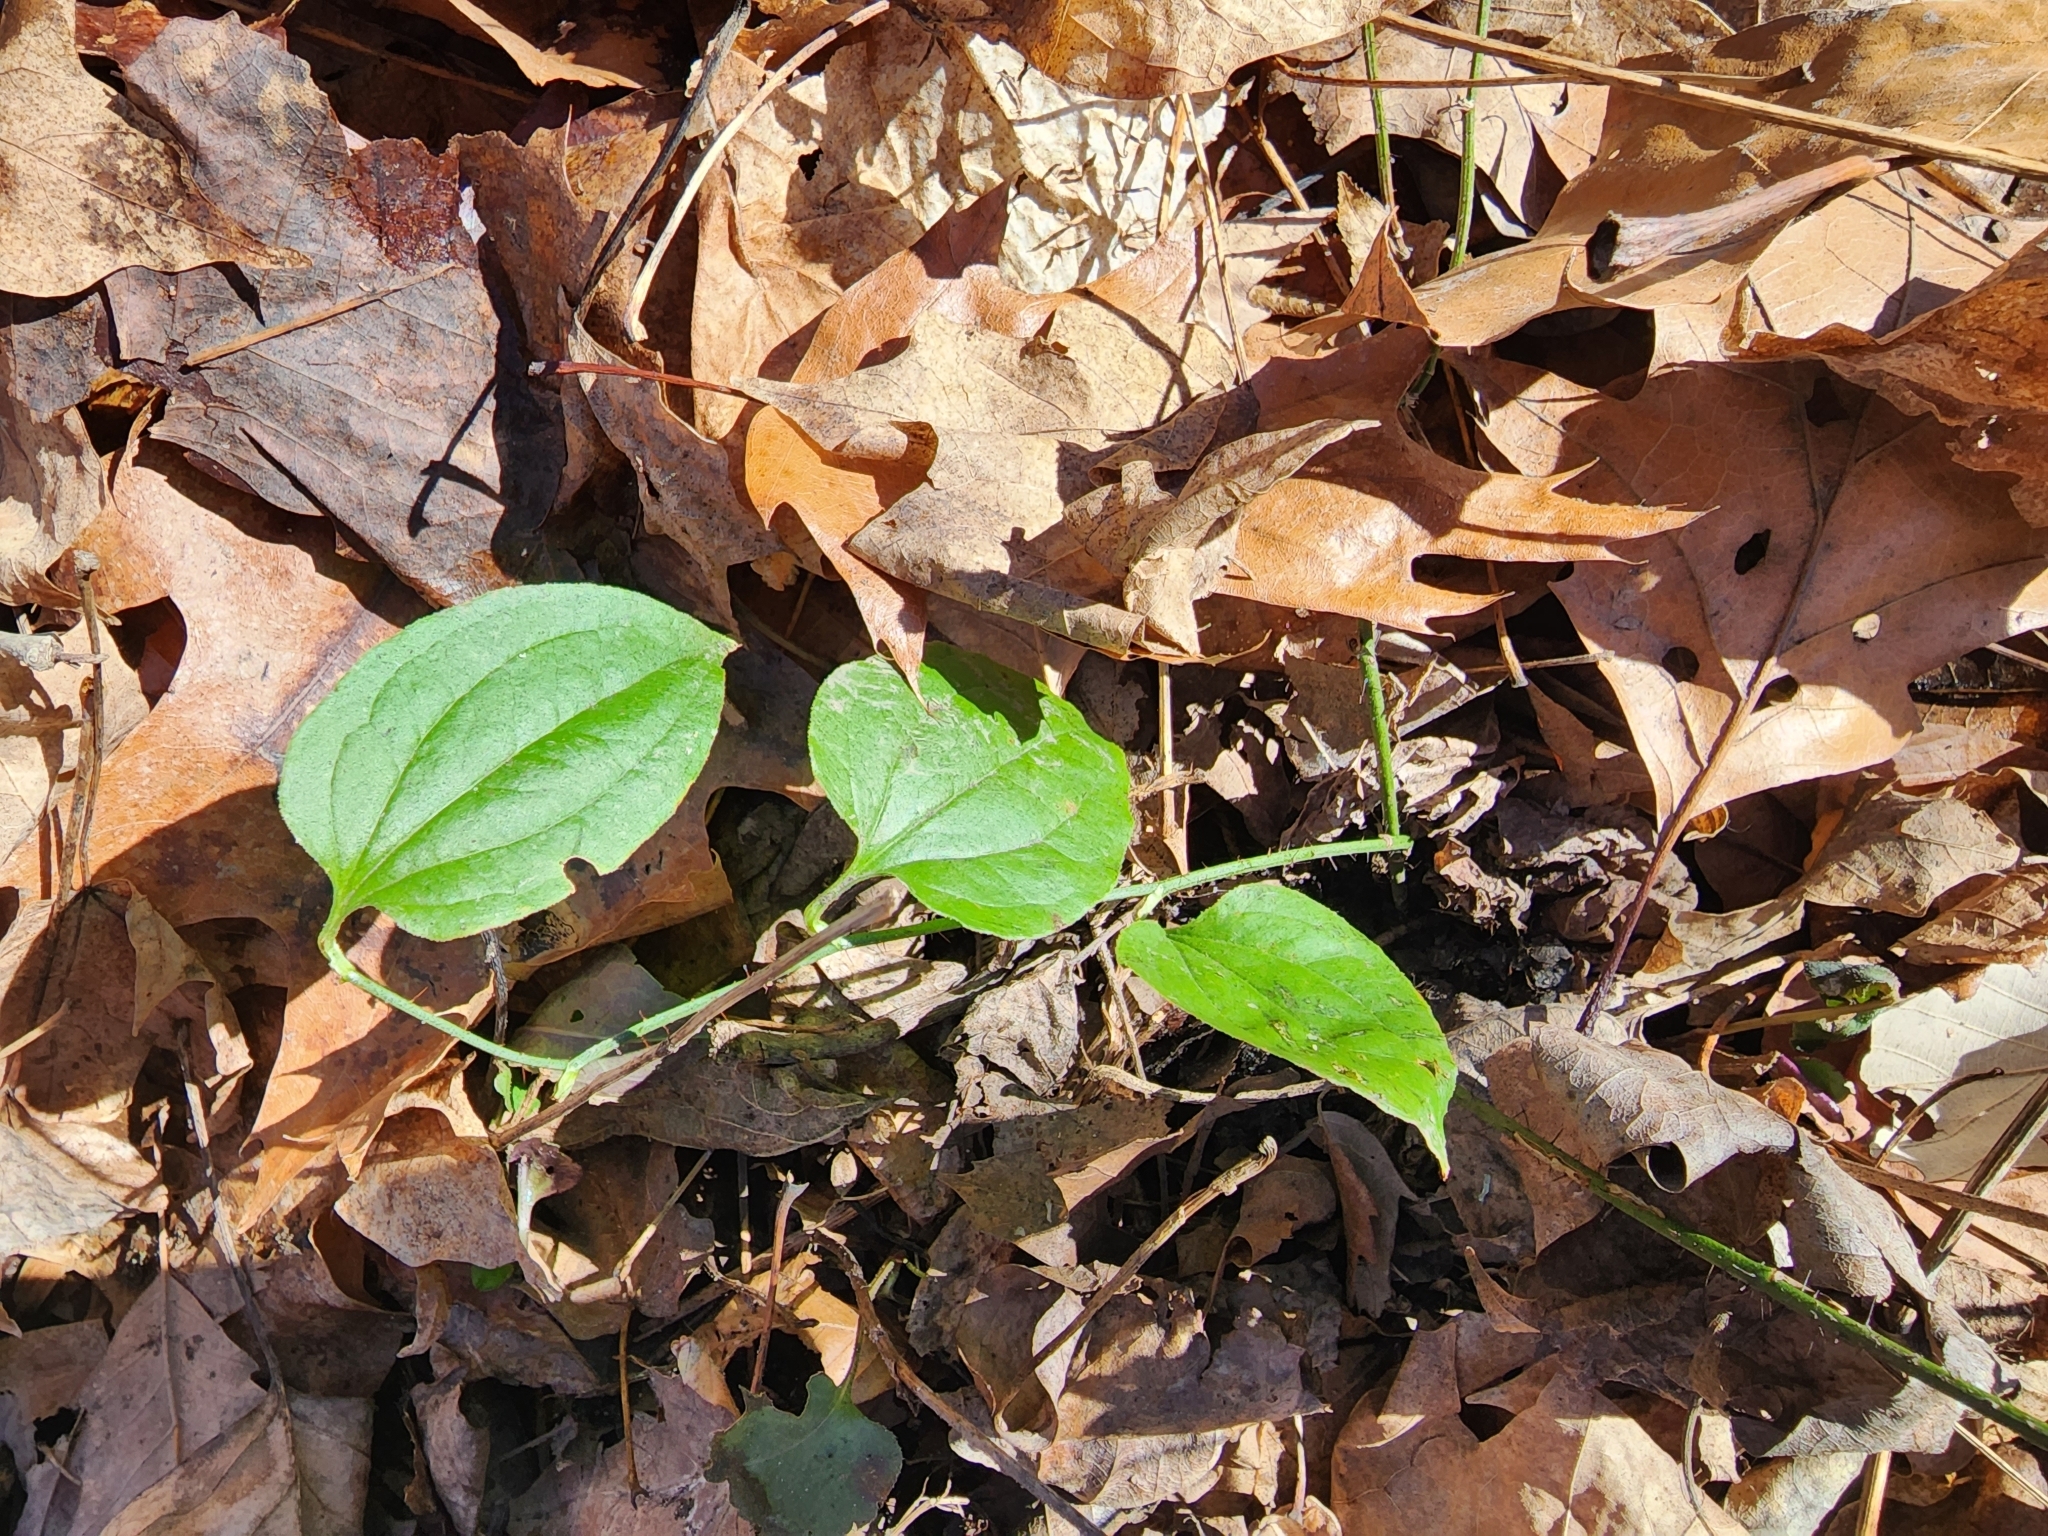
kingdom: Plantae
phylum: Tracheophyta
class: Liliopsida
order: Liliales
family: Smilacaceae
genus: Smilax
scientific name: Smilax tamnoides
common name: Hellfetter
